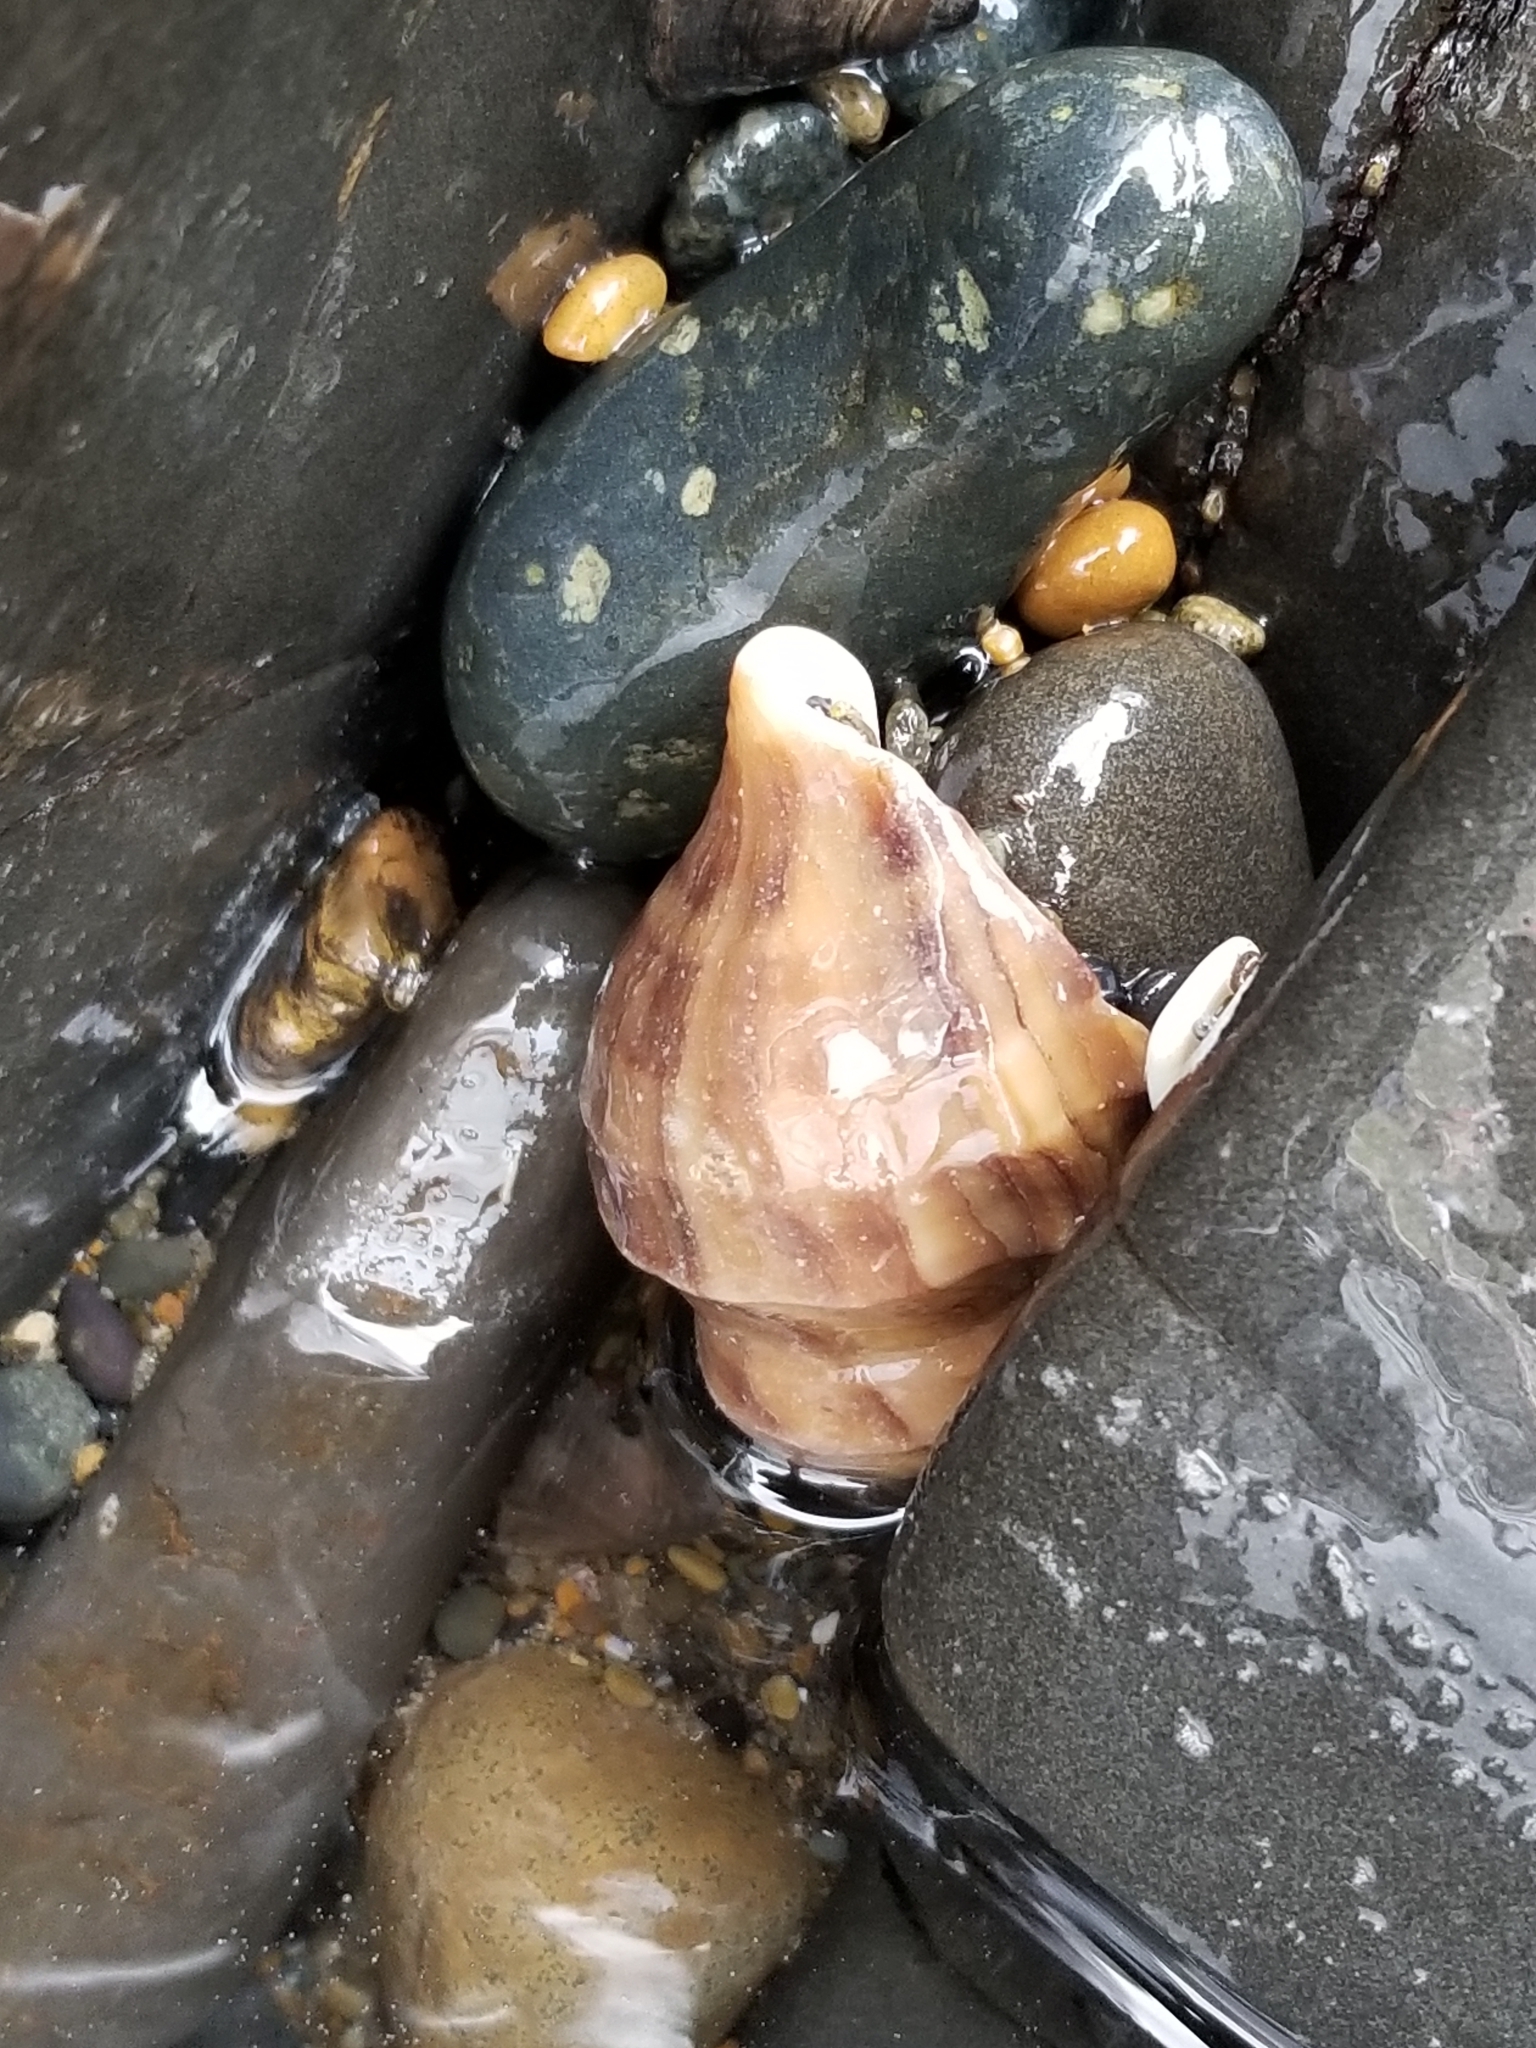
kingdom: Animalia
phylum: Mollusca
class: Gastropoda
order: Neogastropoda
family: Muricidae
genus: Nucella
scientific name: Nucella lamellosa
